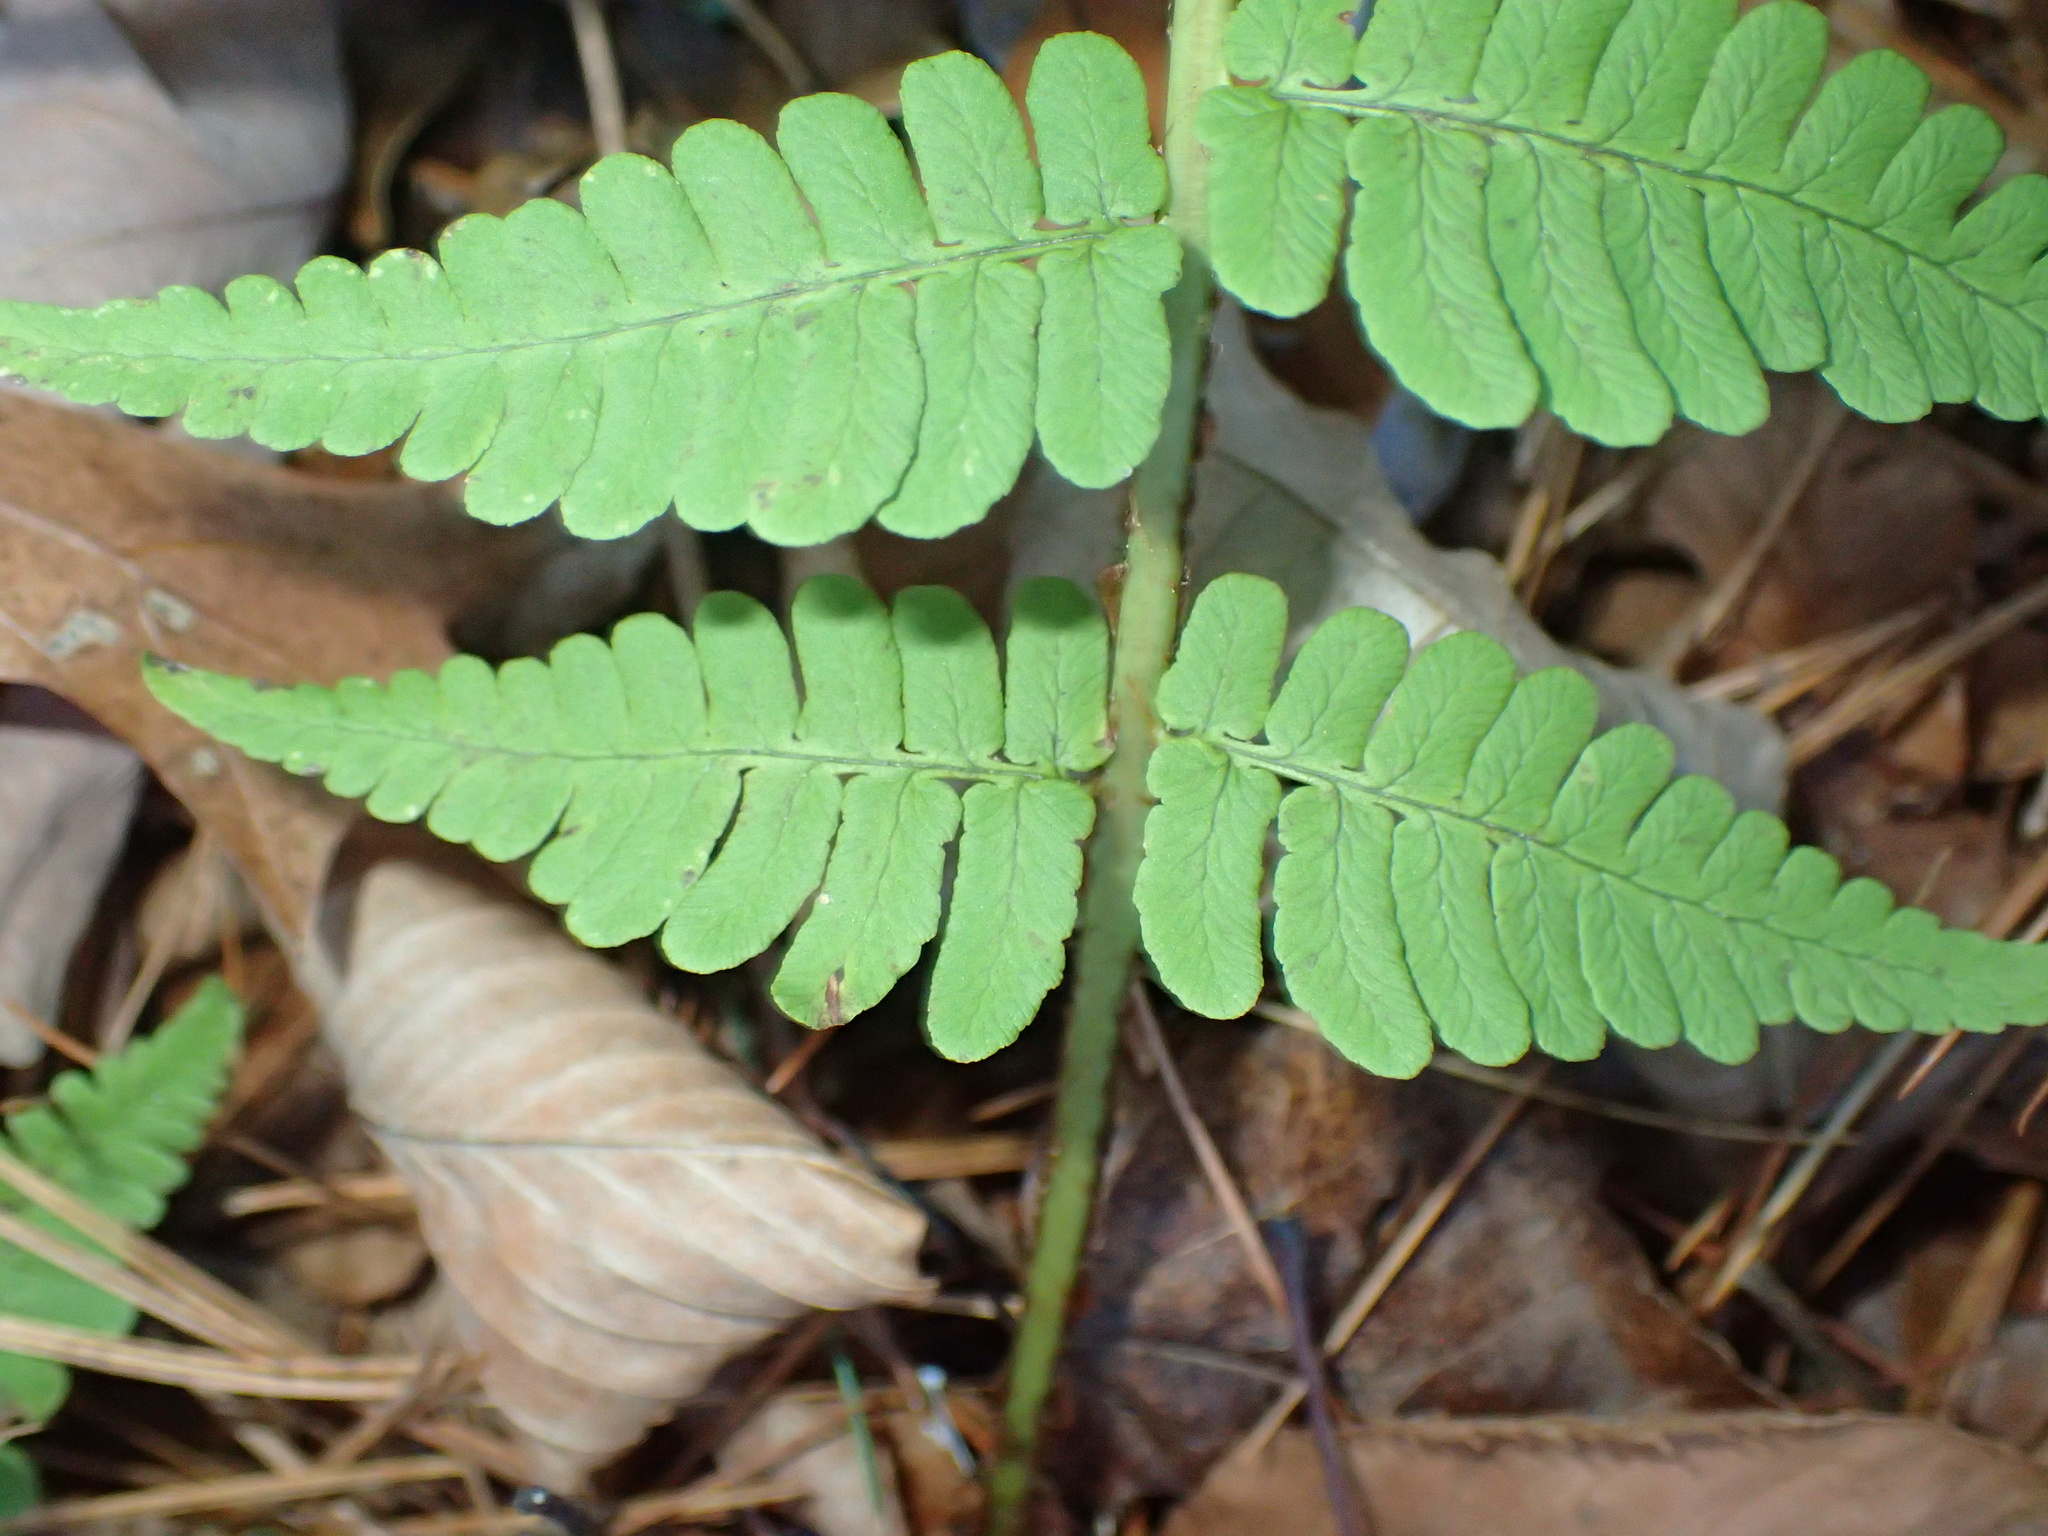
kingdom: Plantae
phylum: Tracheophyta
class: Polypodiopsida
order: Polypodiales
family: Dryopteridaceae
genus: Dryopteris
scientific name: Dryopteris marginalis
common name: Marginal wood fern
